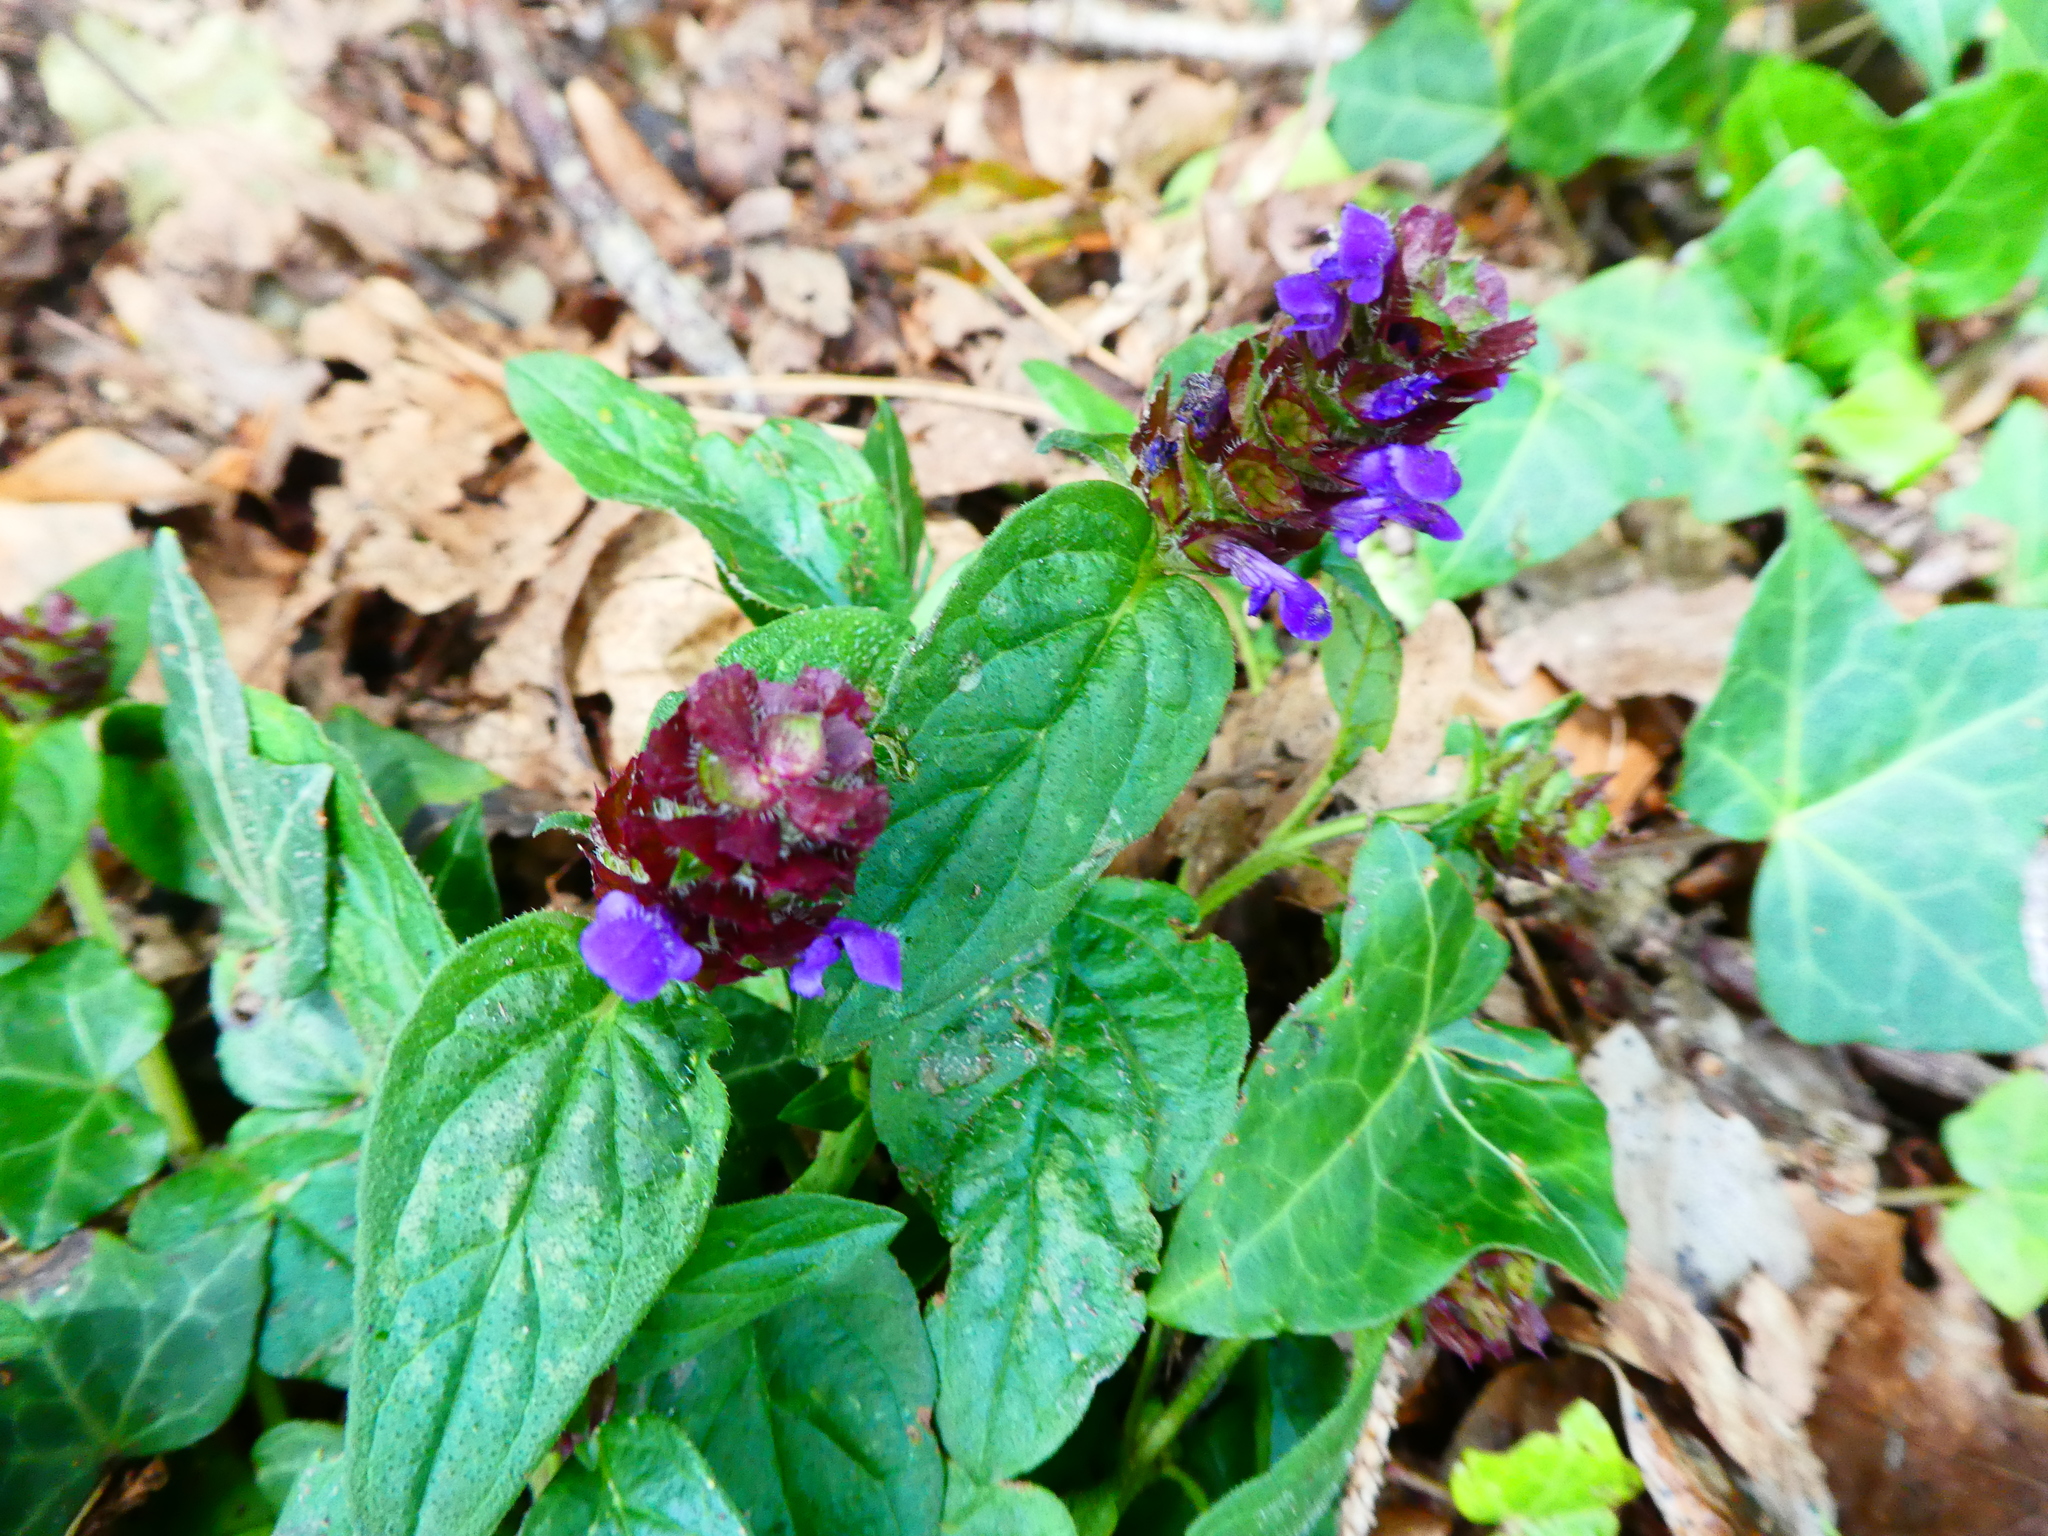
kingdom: Plantae
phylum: Tracheophyta
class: Magnoliopsida
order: Lamiales
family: Lamiaceae
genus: Prunella
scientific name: Prunella vulgaris
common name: Heal-all
